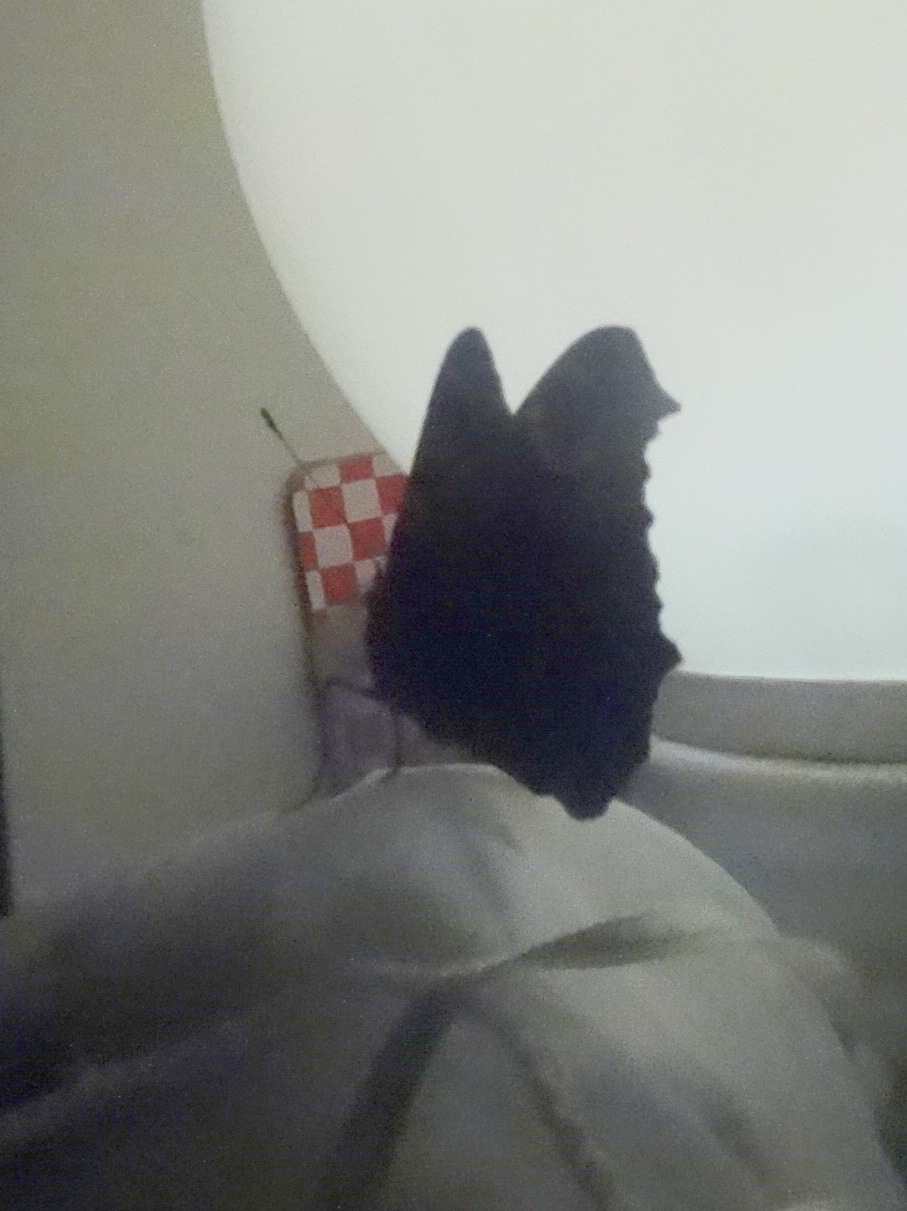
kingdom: Animalia
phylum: Arthropoda
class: Insecta
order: Lepidoptera
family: Nymphalidae
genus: Aglais
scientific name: Aglais io
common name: Peacock
